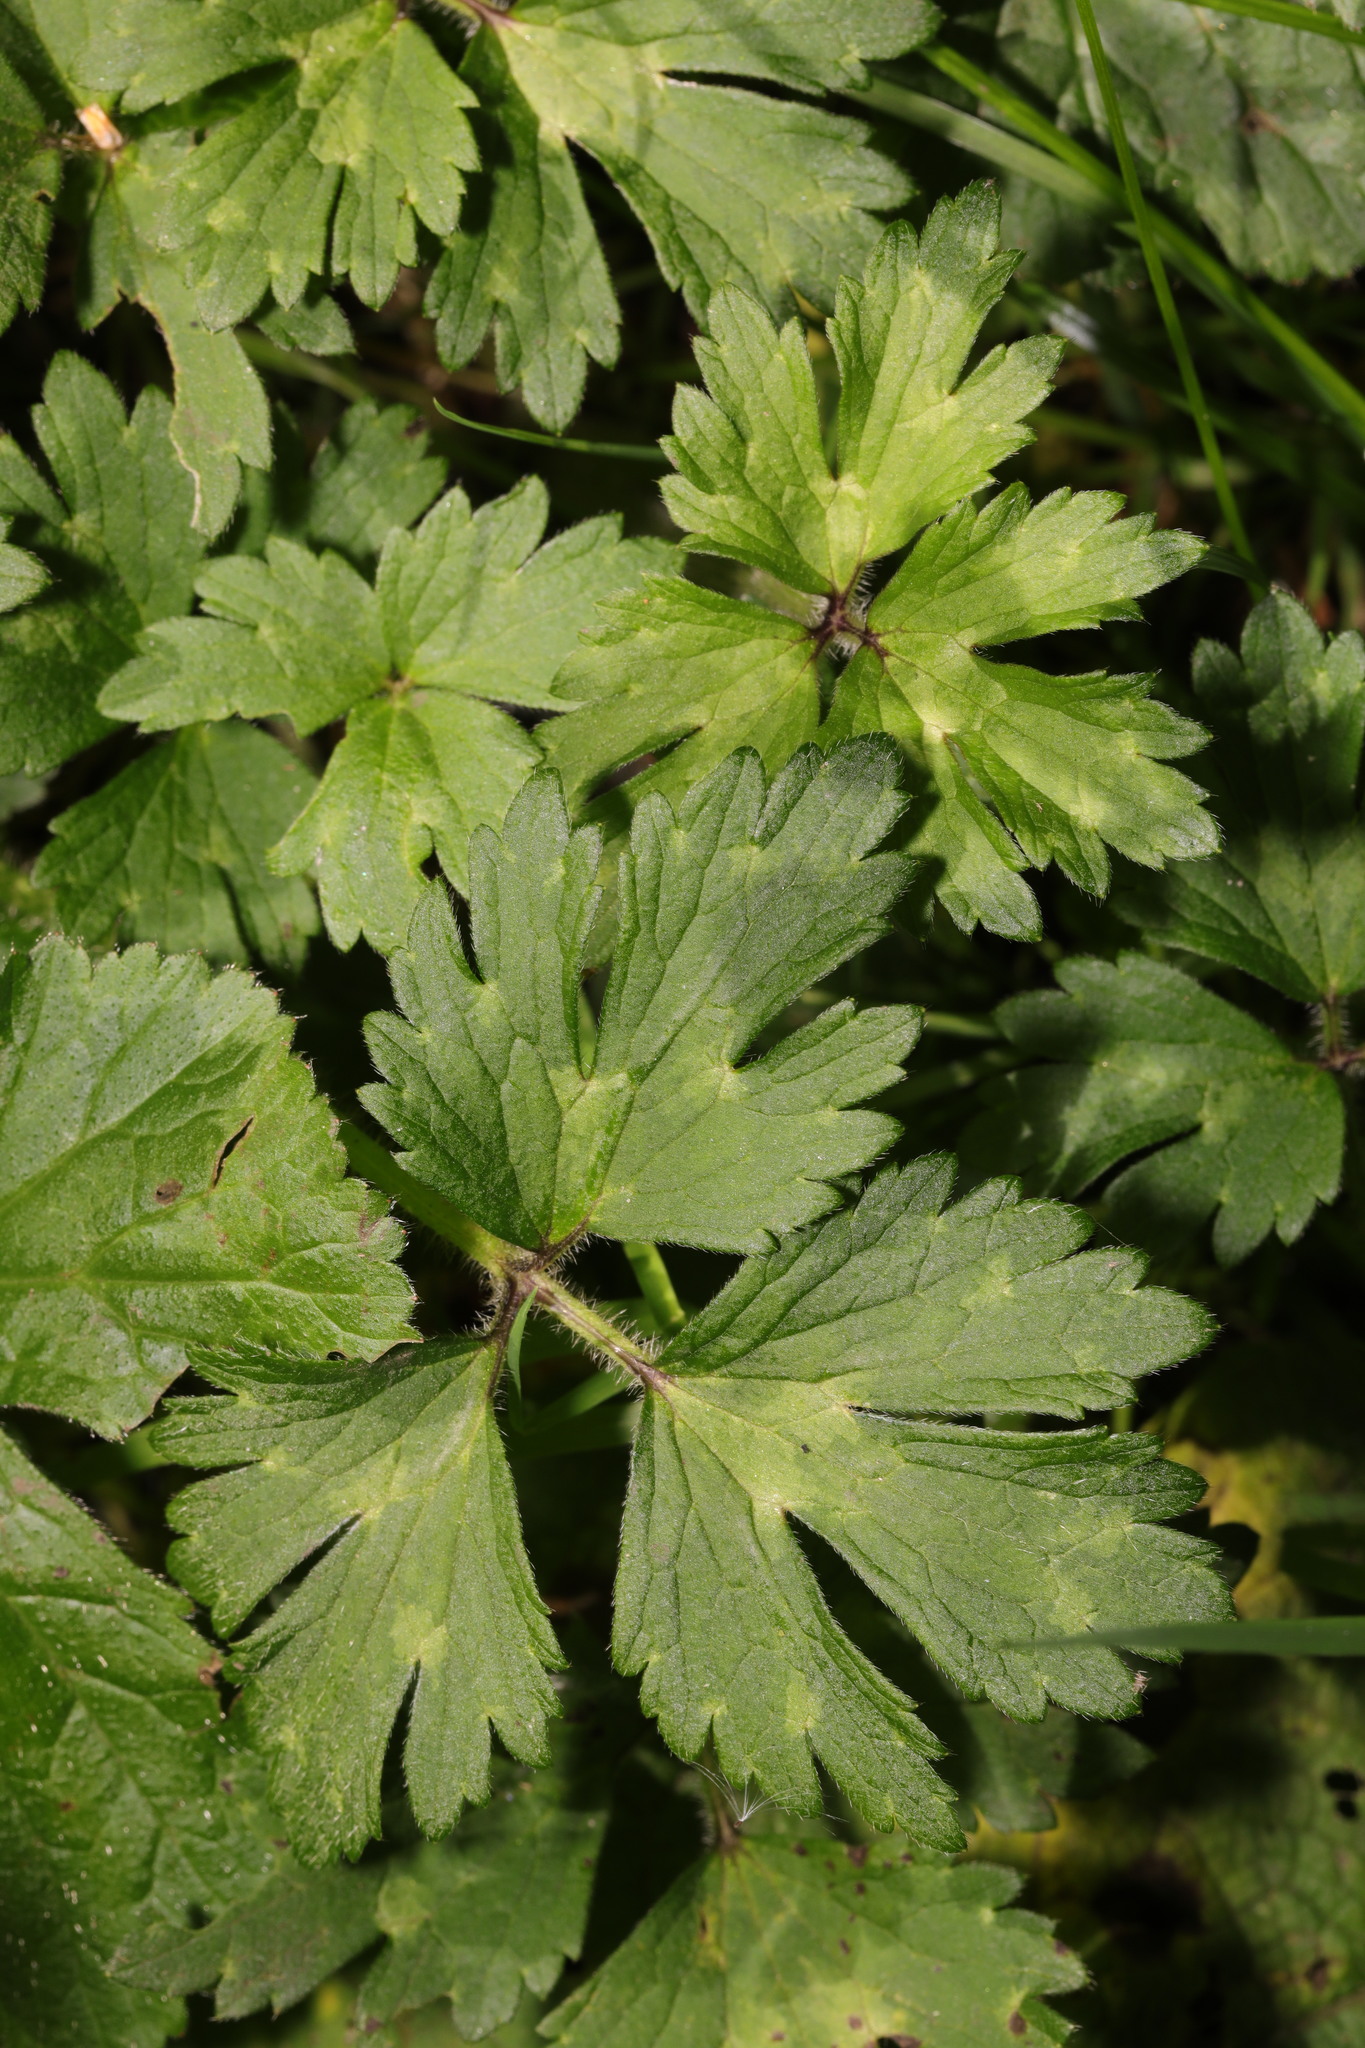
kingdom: Plantae
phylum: Tracheophyta
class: Magnoliopsida
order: Ranunculales
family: Ranunculaceae
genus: Ranunculus
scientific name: Ranunculus repens
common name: Creeping buttercup
